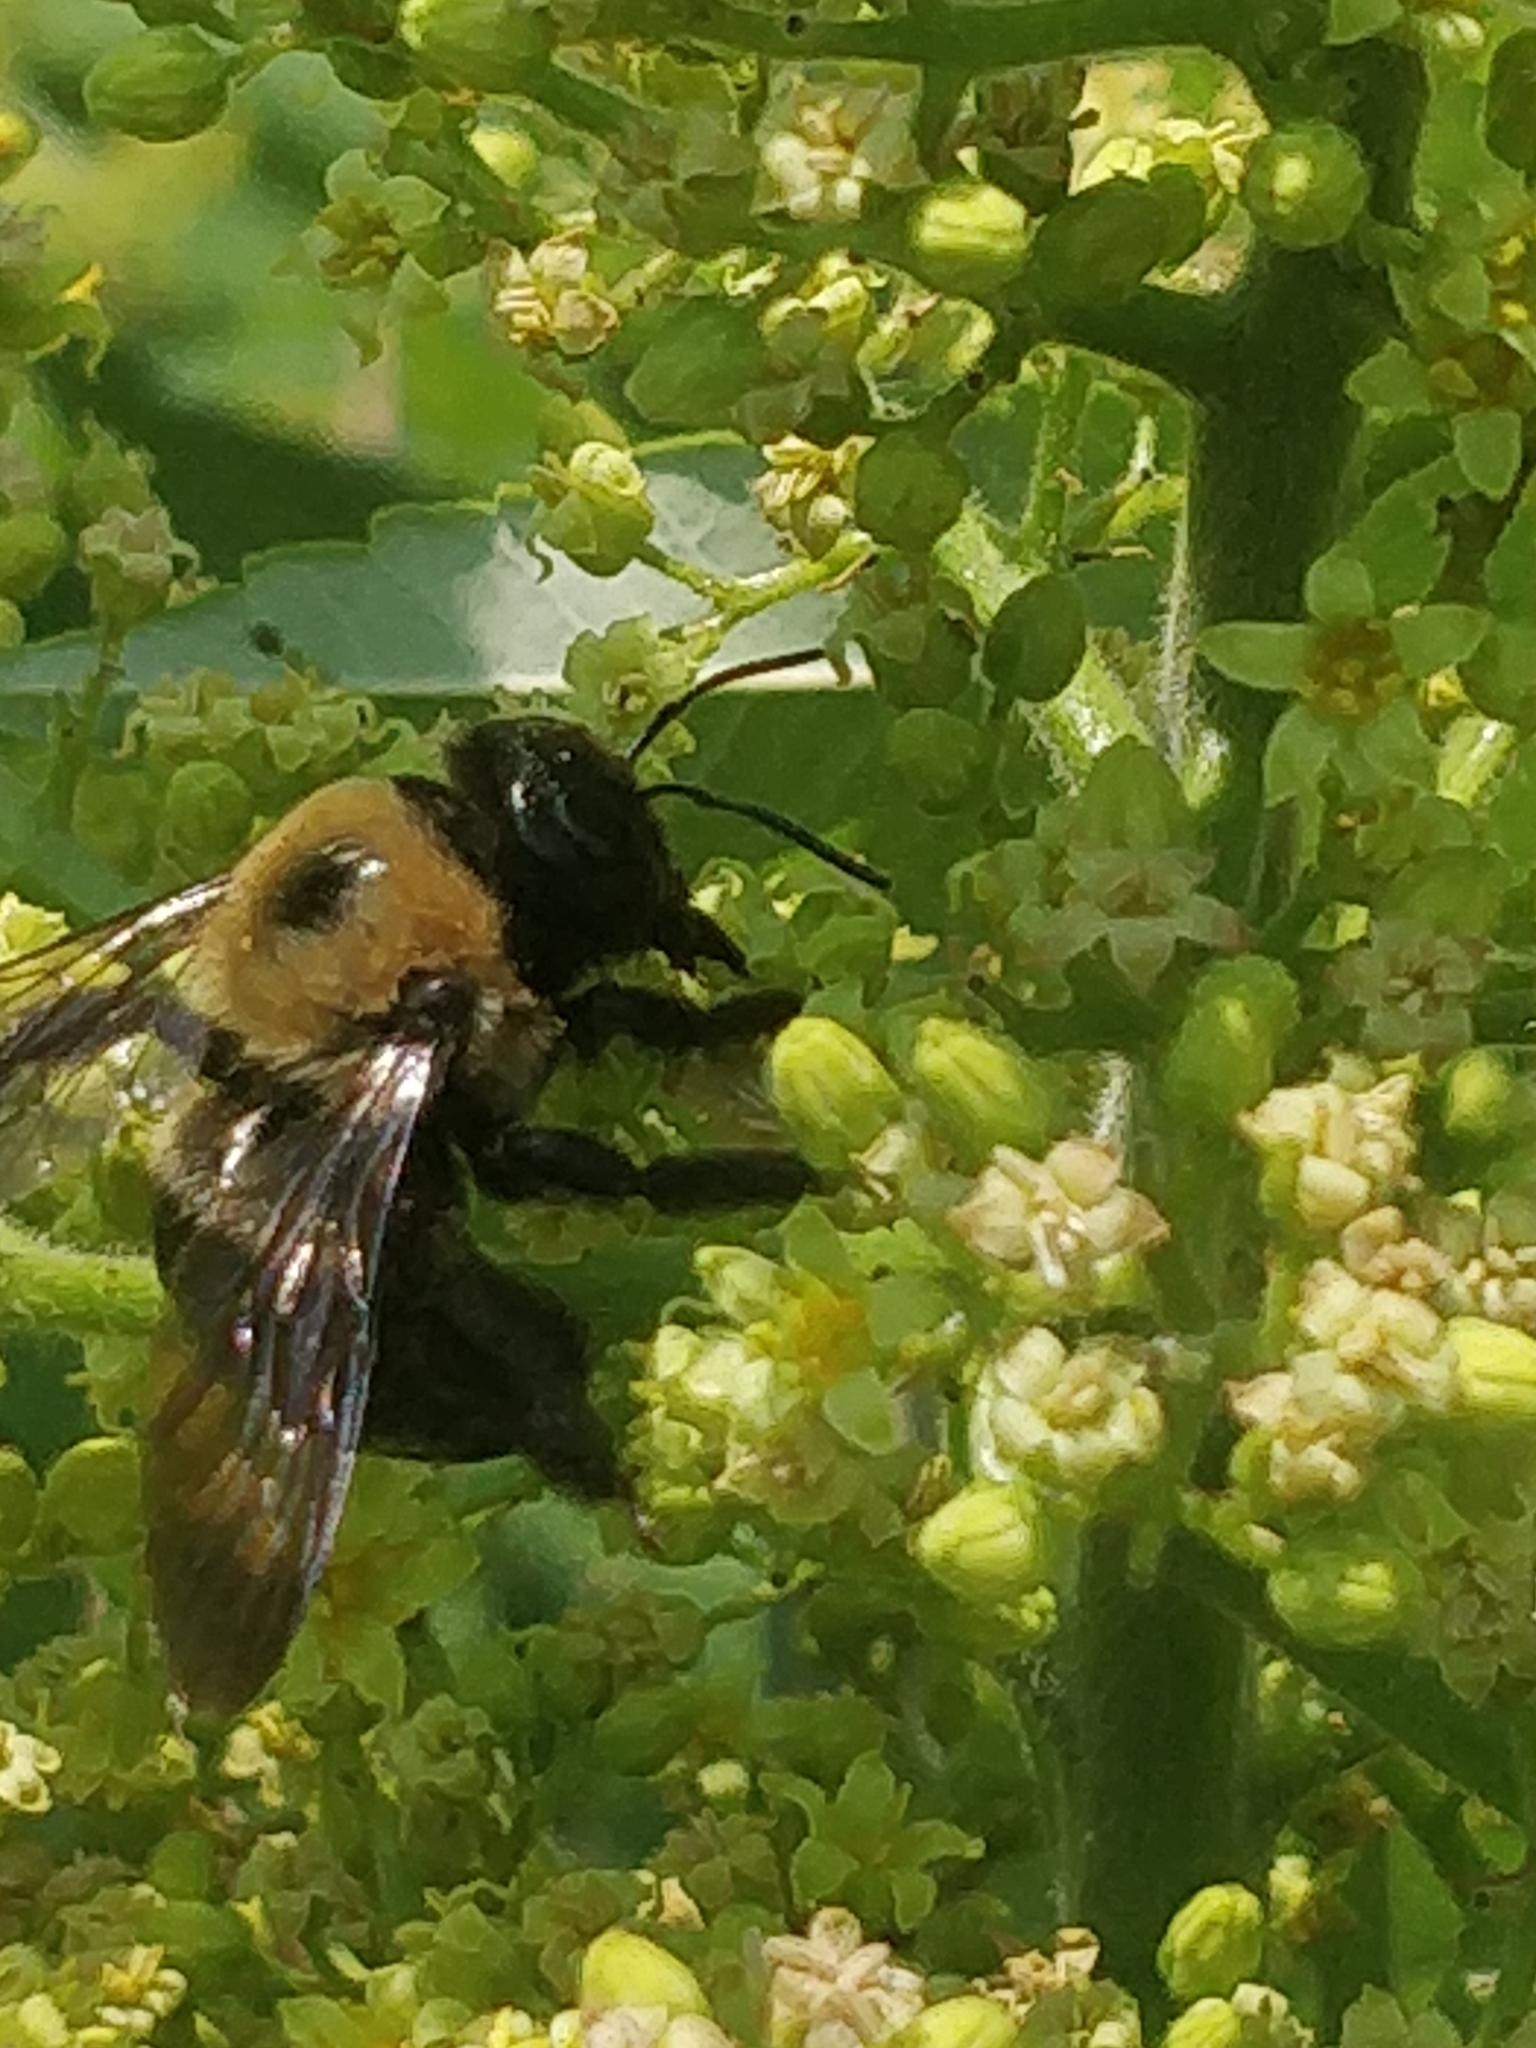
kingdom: Animalia
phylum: Arthropoda
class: Insecta
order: Hymenoptera
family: Apidae
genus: Xylocopa
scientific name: Xylocopa virginica
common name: Carpenter bee
